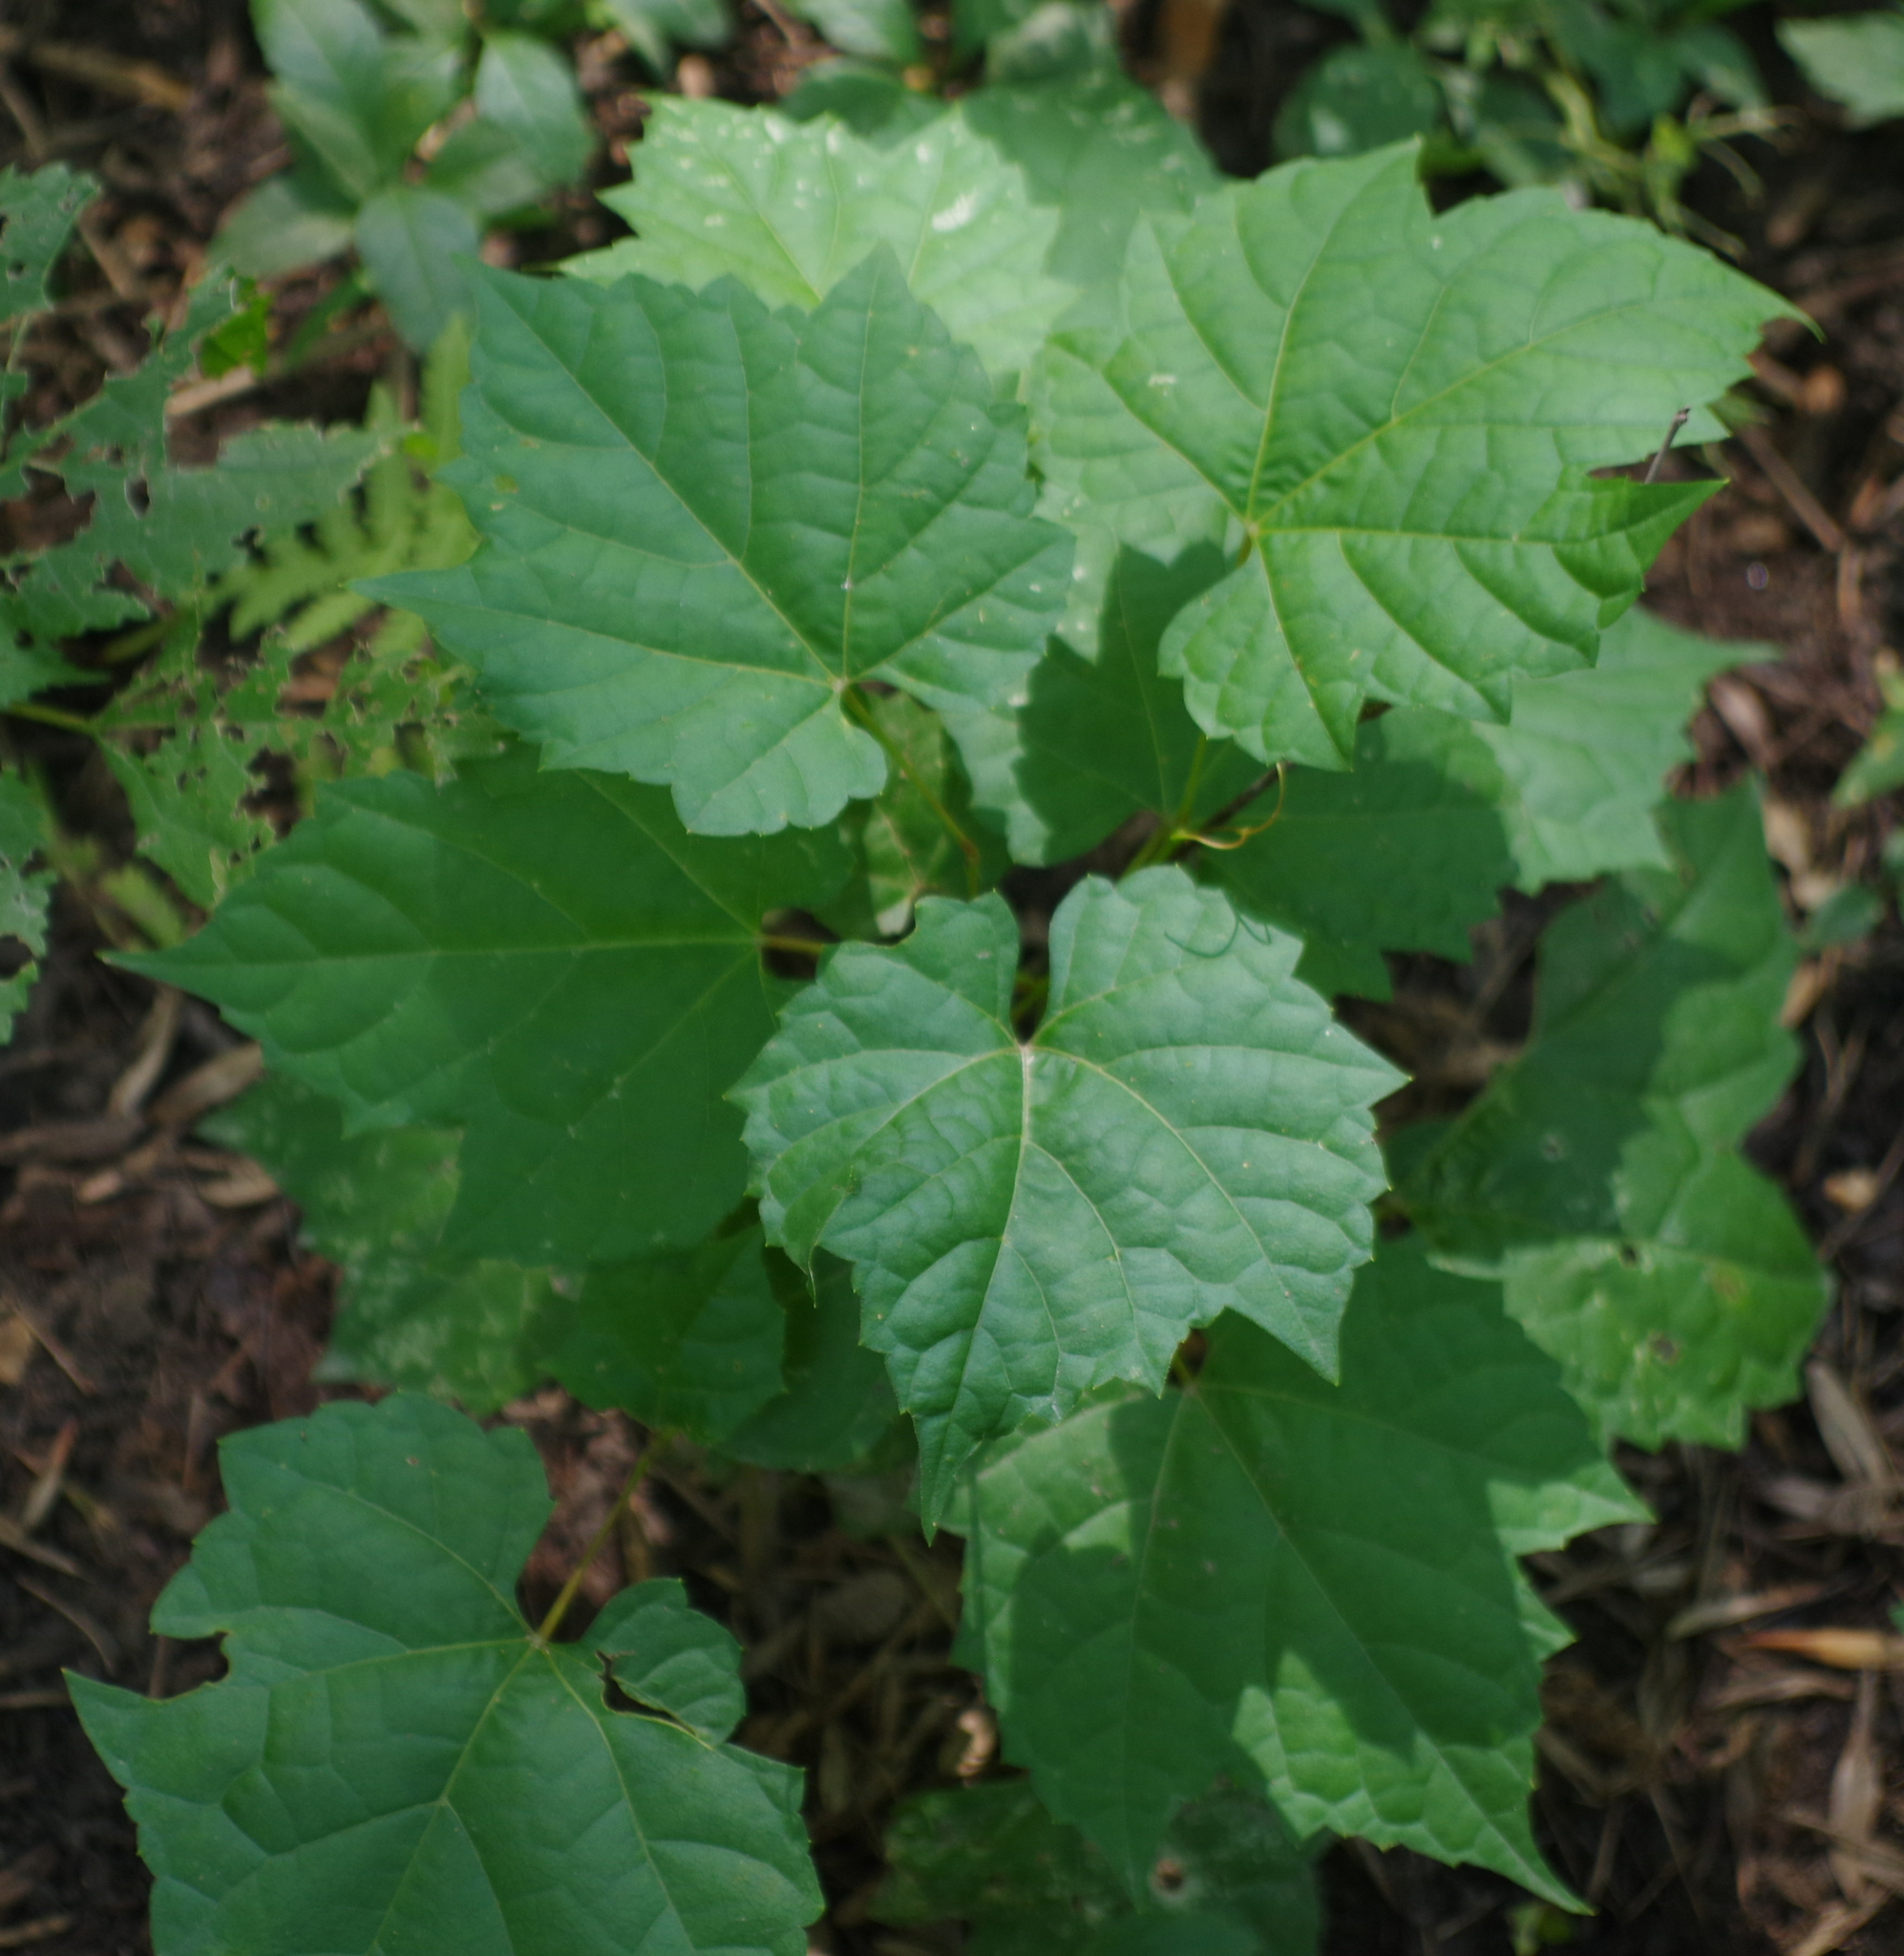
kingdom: Plantae
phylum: Tracheophyta
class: Magnoliopsida
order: Vitales
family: Vitaceae
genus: Vitis
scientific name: Vitis riparia
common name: Frost grape
